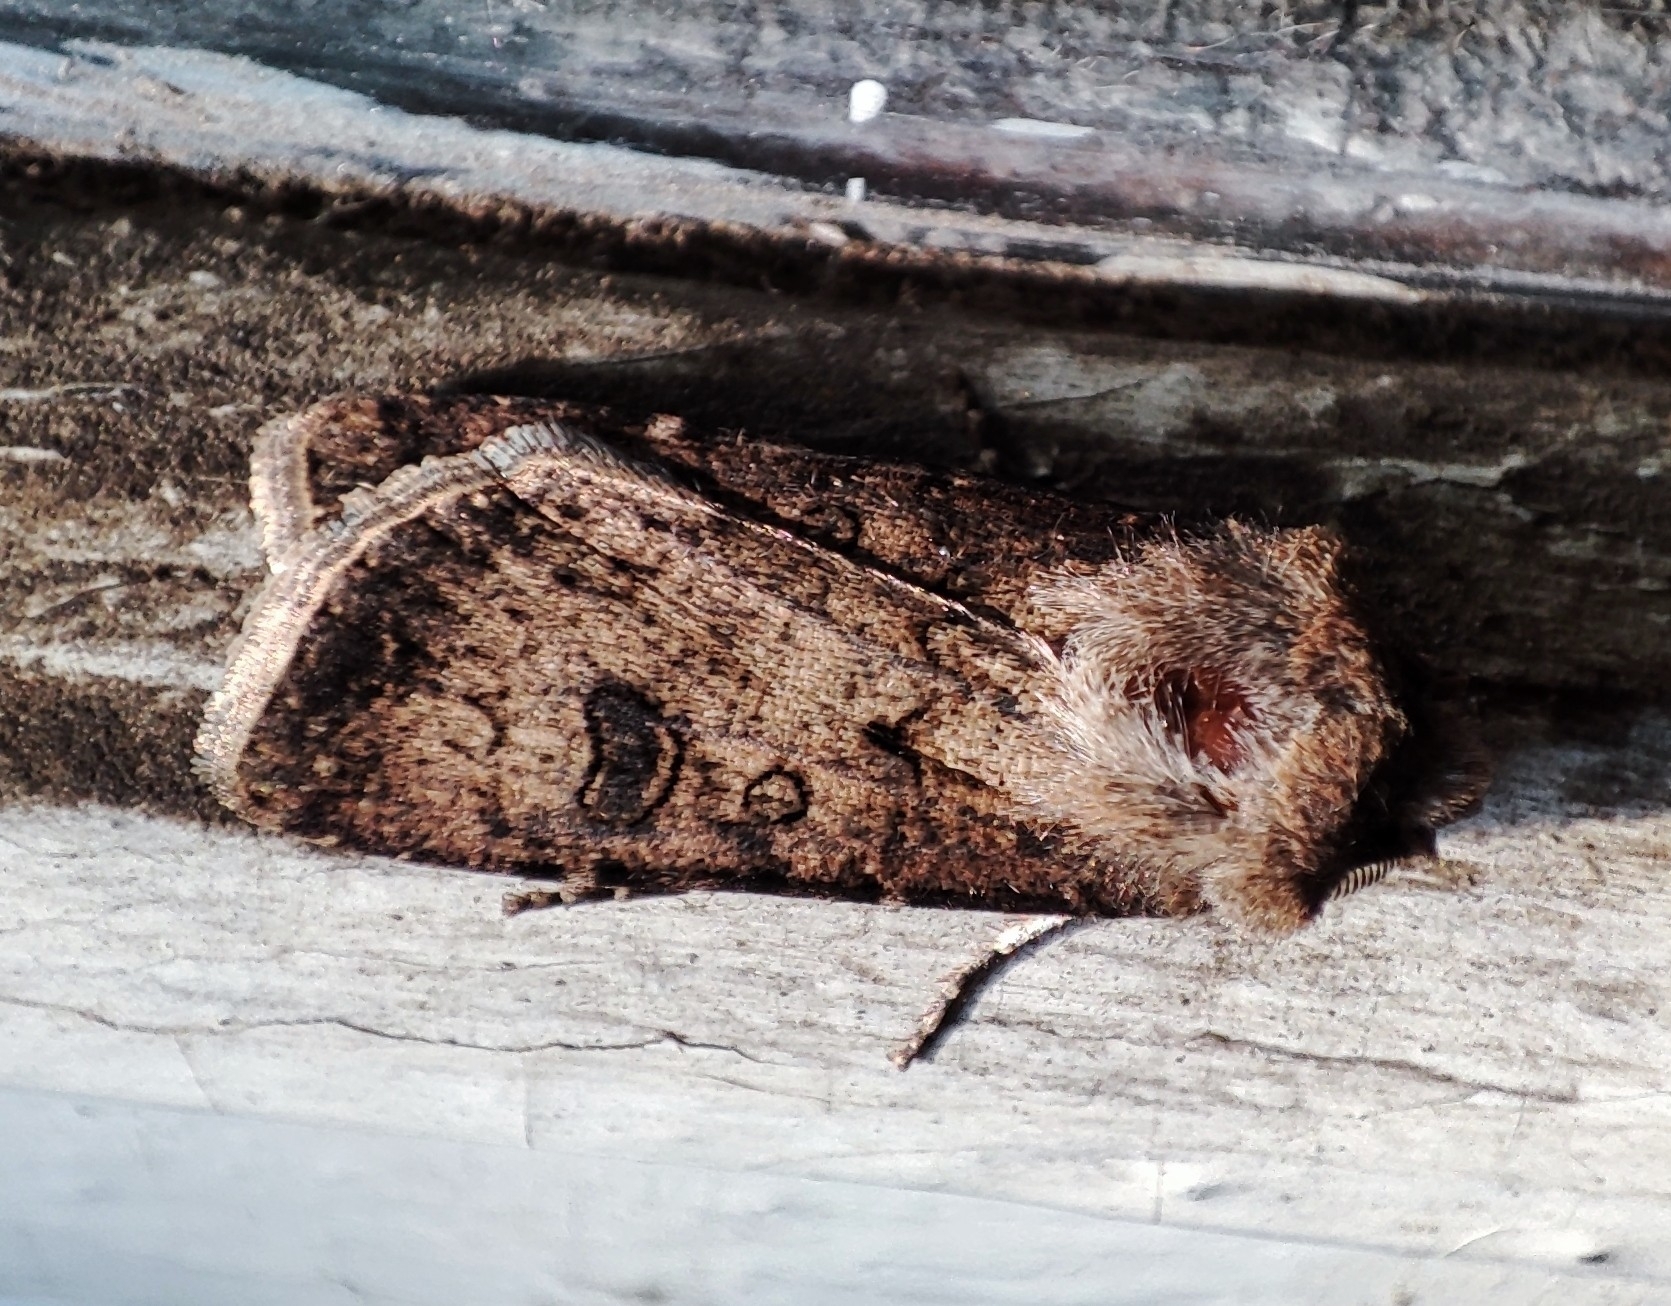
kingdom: Animalia
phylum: Arthropoda
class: Insecta
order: Lepidoptera
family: Noctuidae
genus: Agrotis
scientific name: Agrotis segetum
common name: Turnip moth
